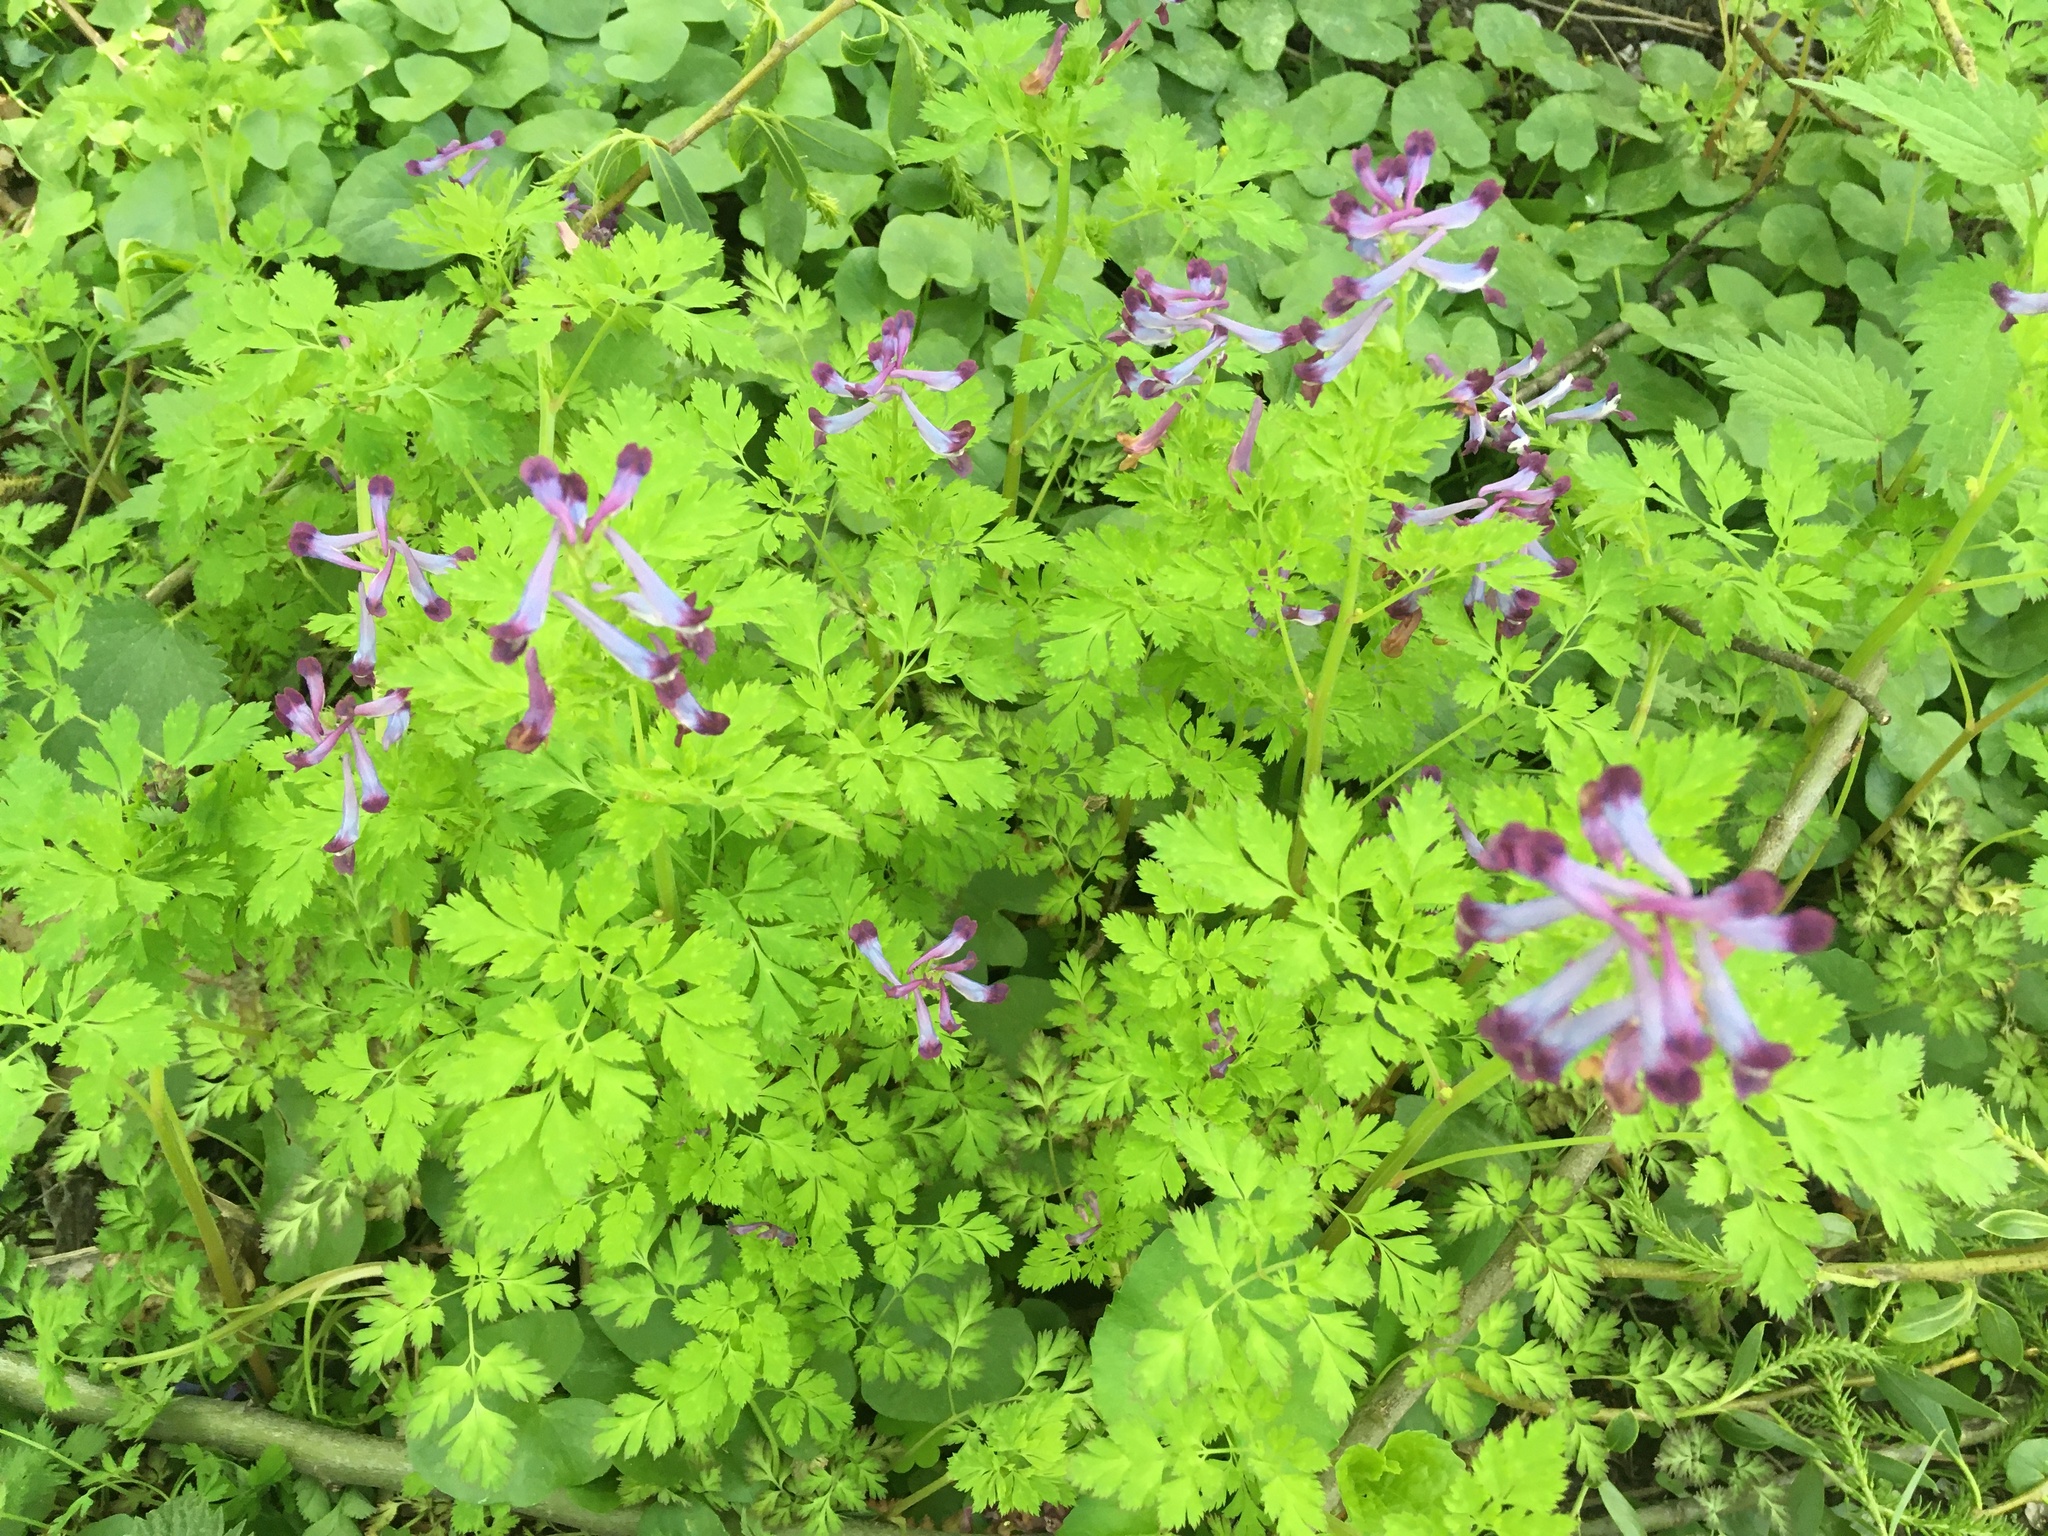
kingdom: Plantae
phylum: Tracheophyta
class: Magnoliopsida
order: Ranunculales
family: Papaveraceae
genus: Corydalis
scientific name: Corydalis incisa
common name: Incised fumewort
